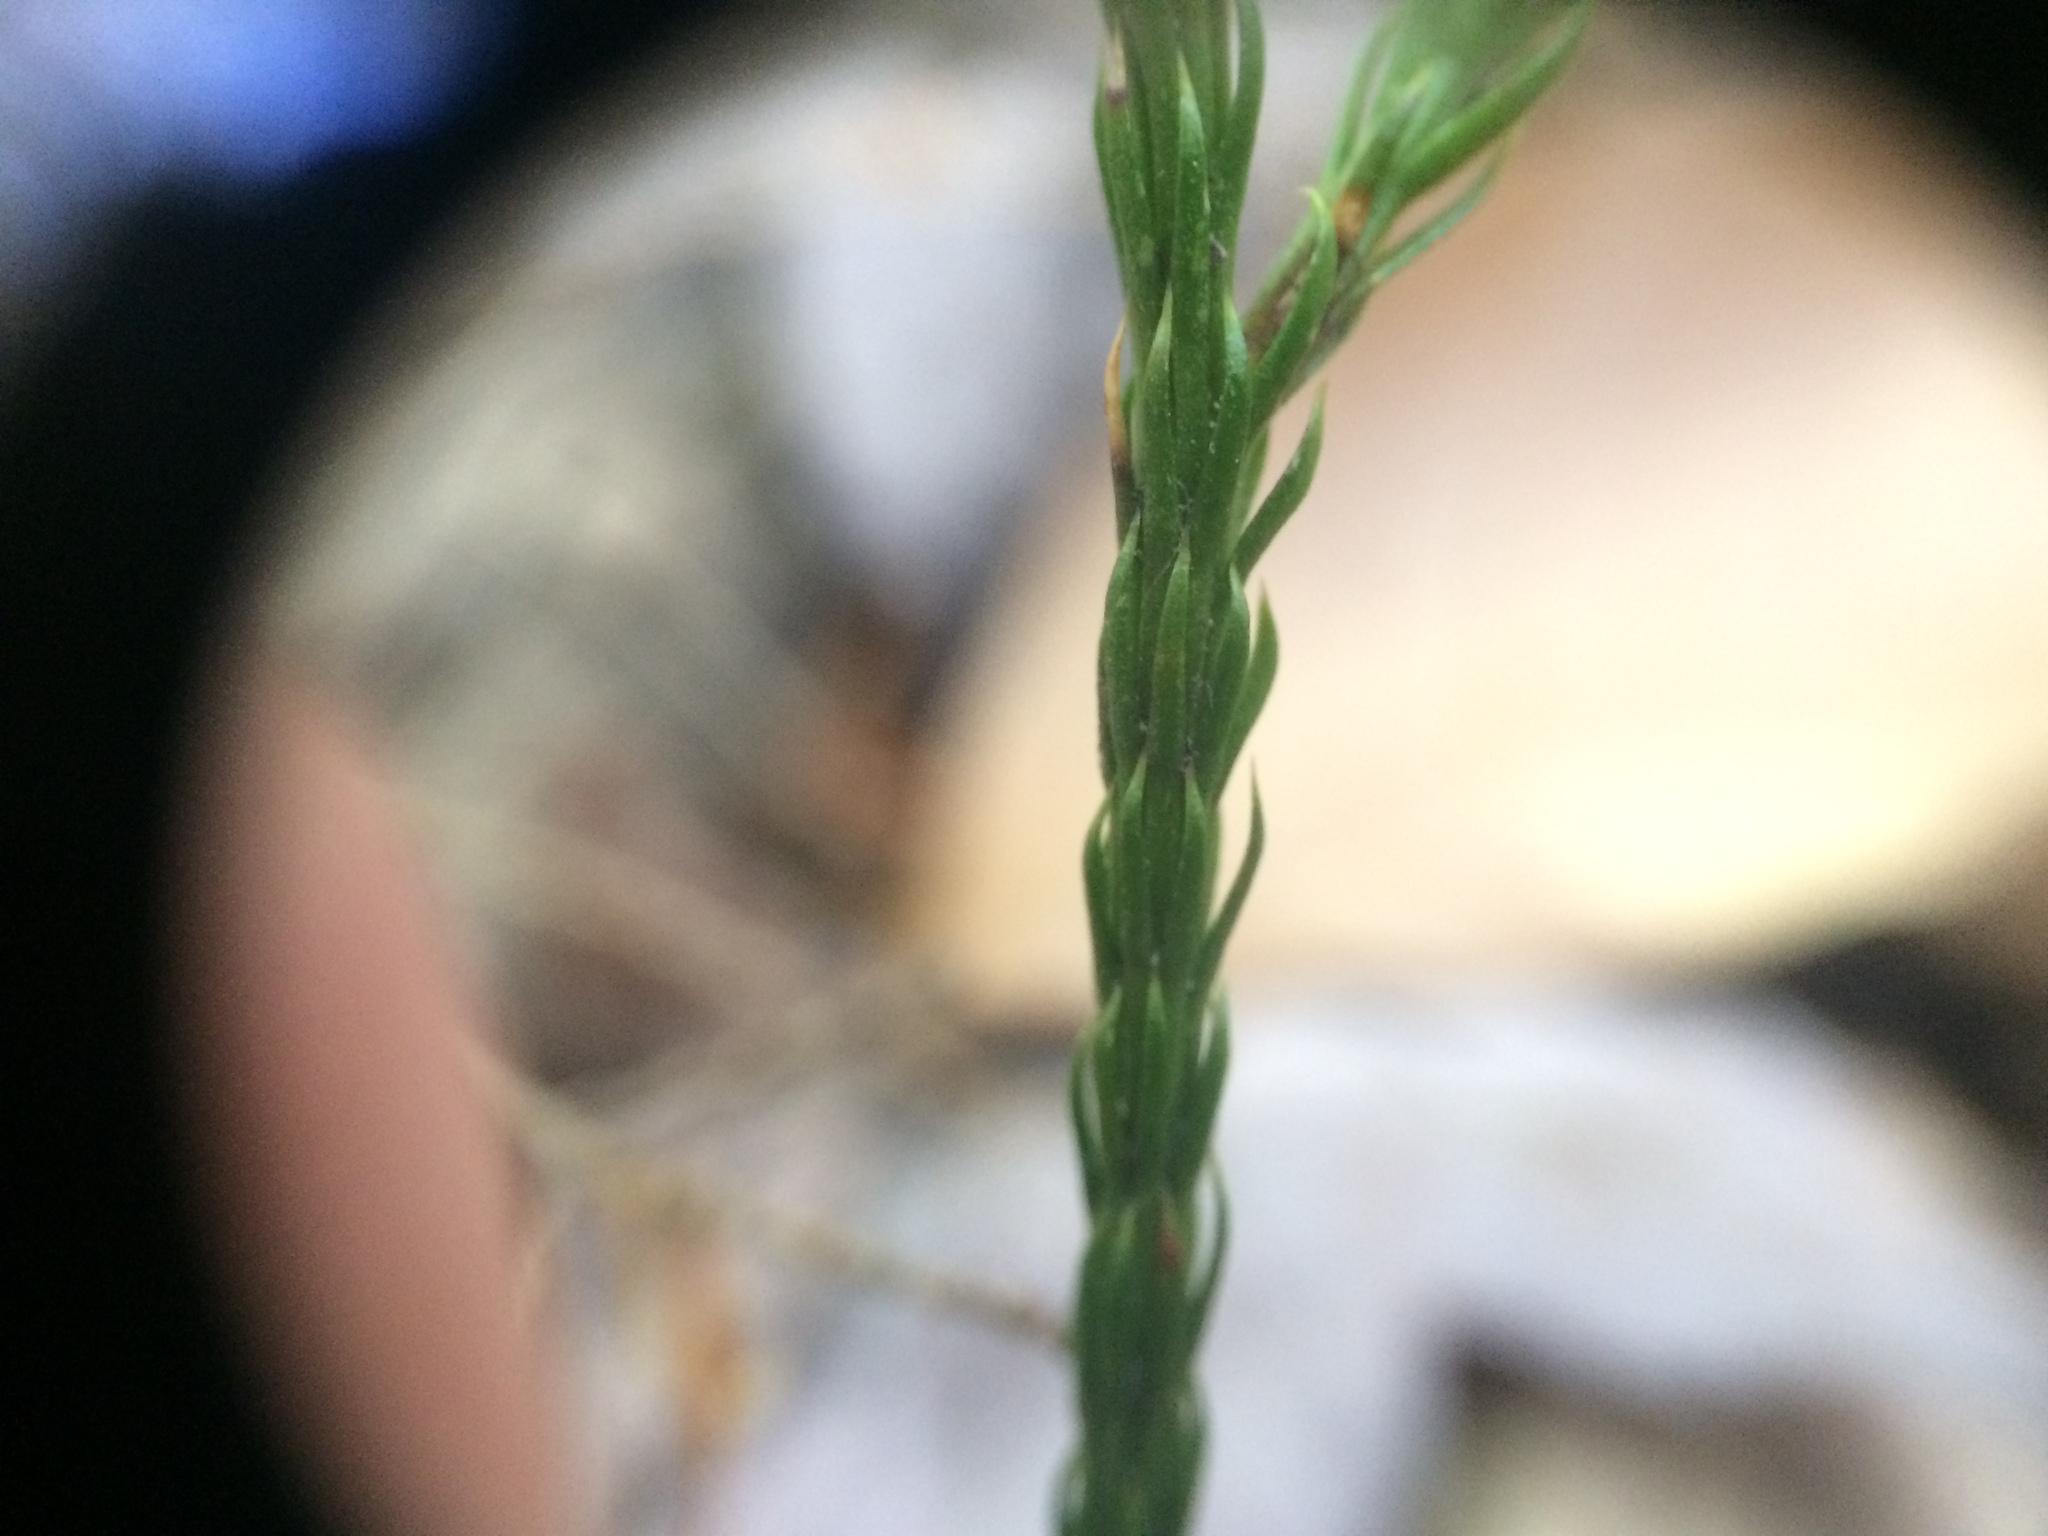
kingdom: Plantae
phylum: Tracheophyta
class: Lycopodiopsida
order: Lycopodiales
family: Lycopodiaceae
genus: Dendrolycopodium
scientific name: Dendrolycopodium obscurum
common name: Common ground-pine
